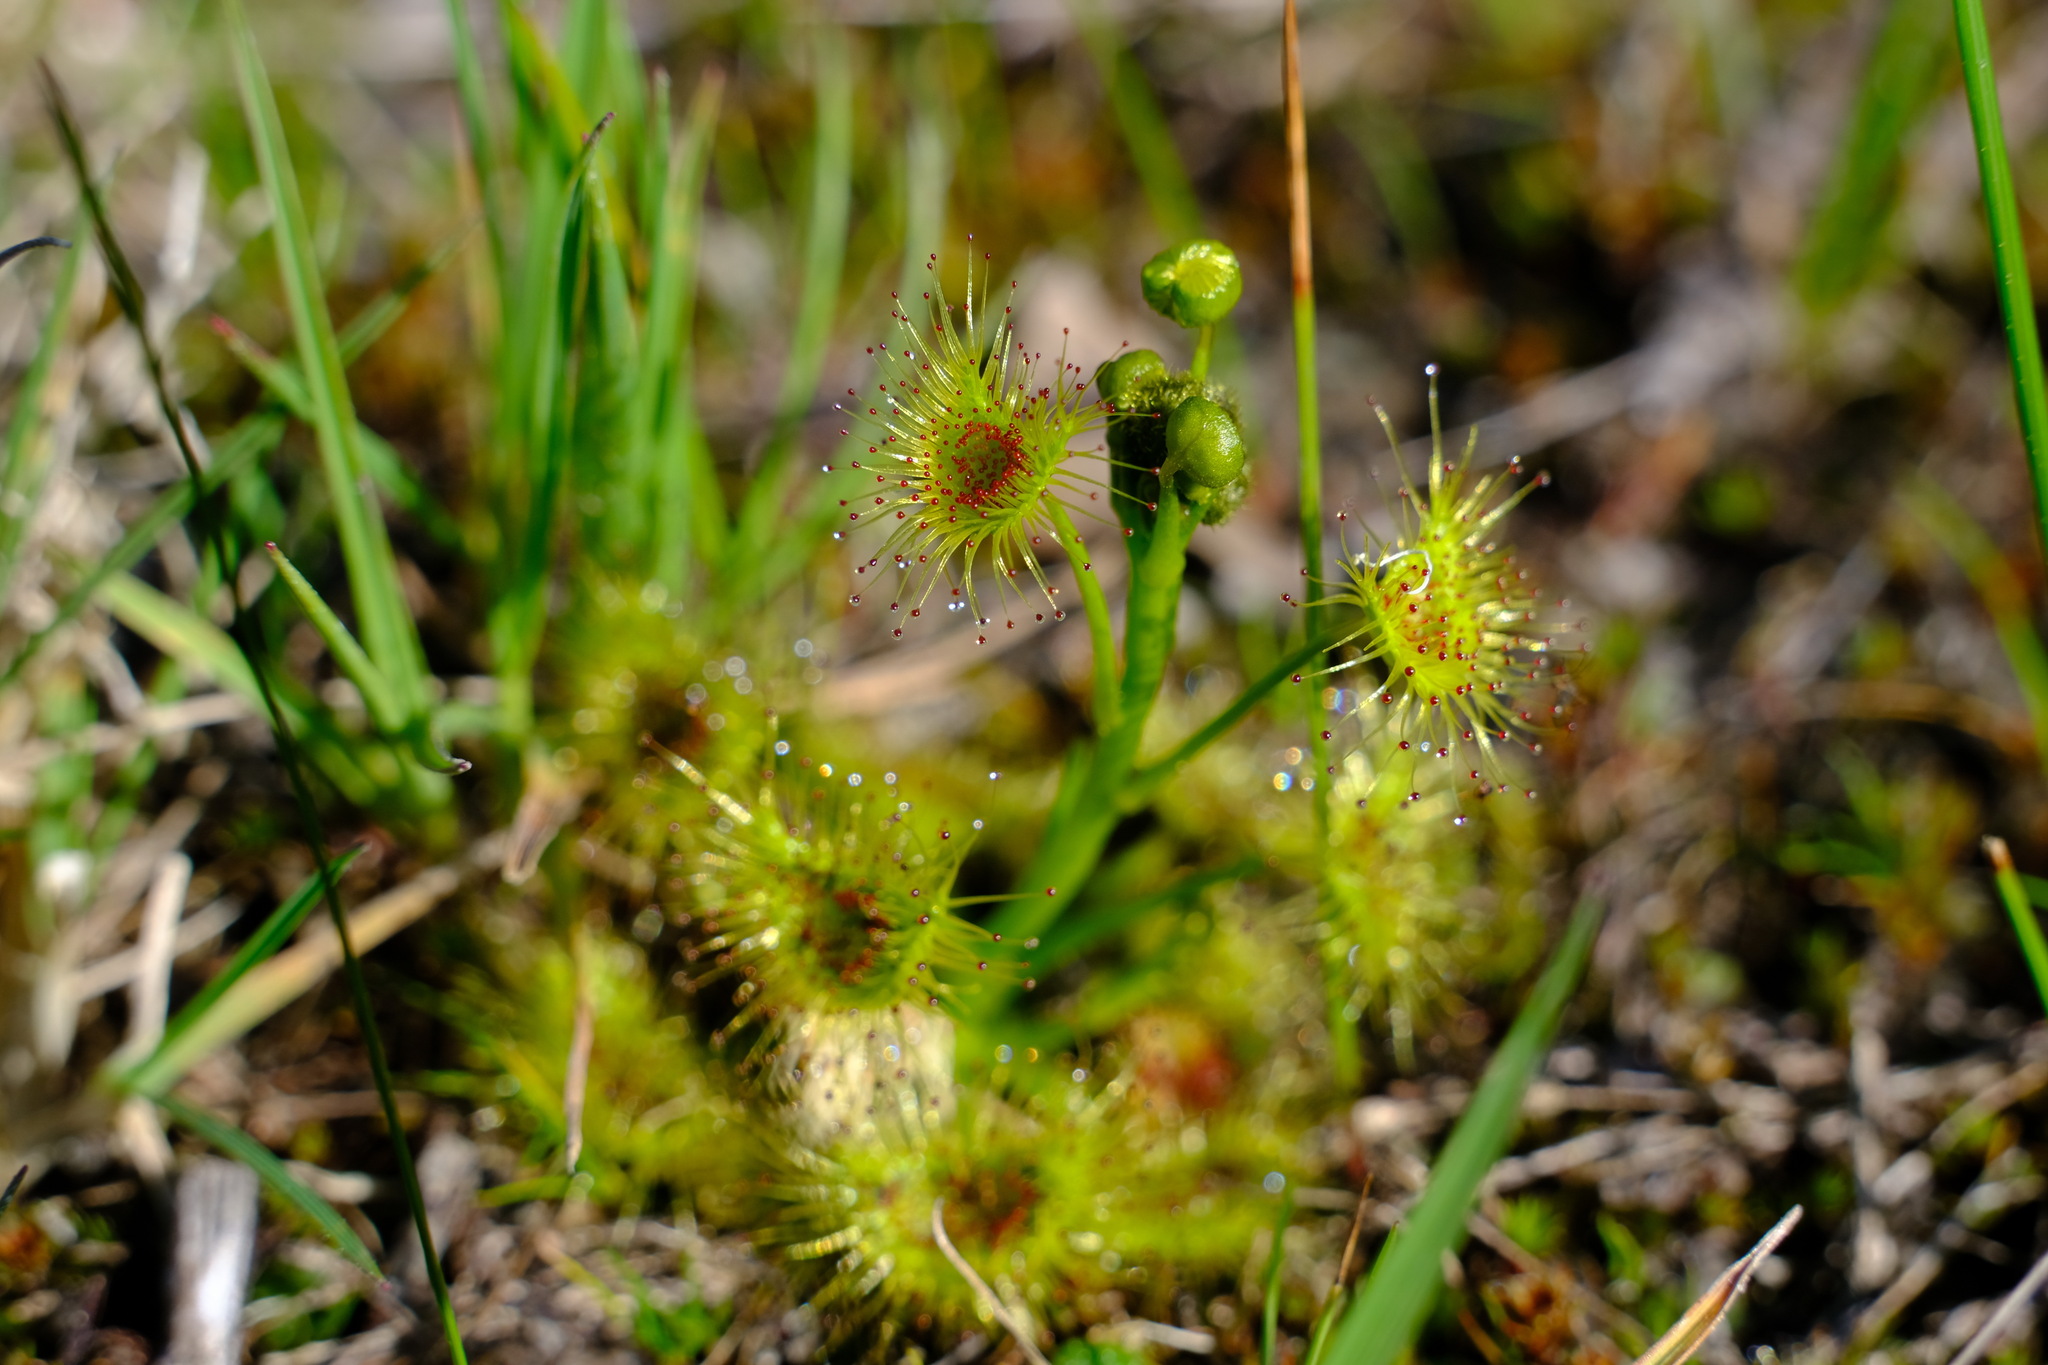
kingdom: Plantae
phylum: Tracheophyta
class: Magnoliopsida
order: Caryophyllales
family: Droseraceae
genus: Drosera
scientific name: Drosera hookeri
